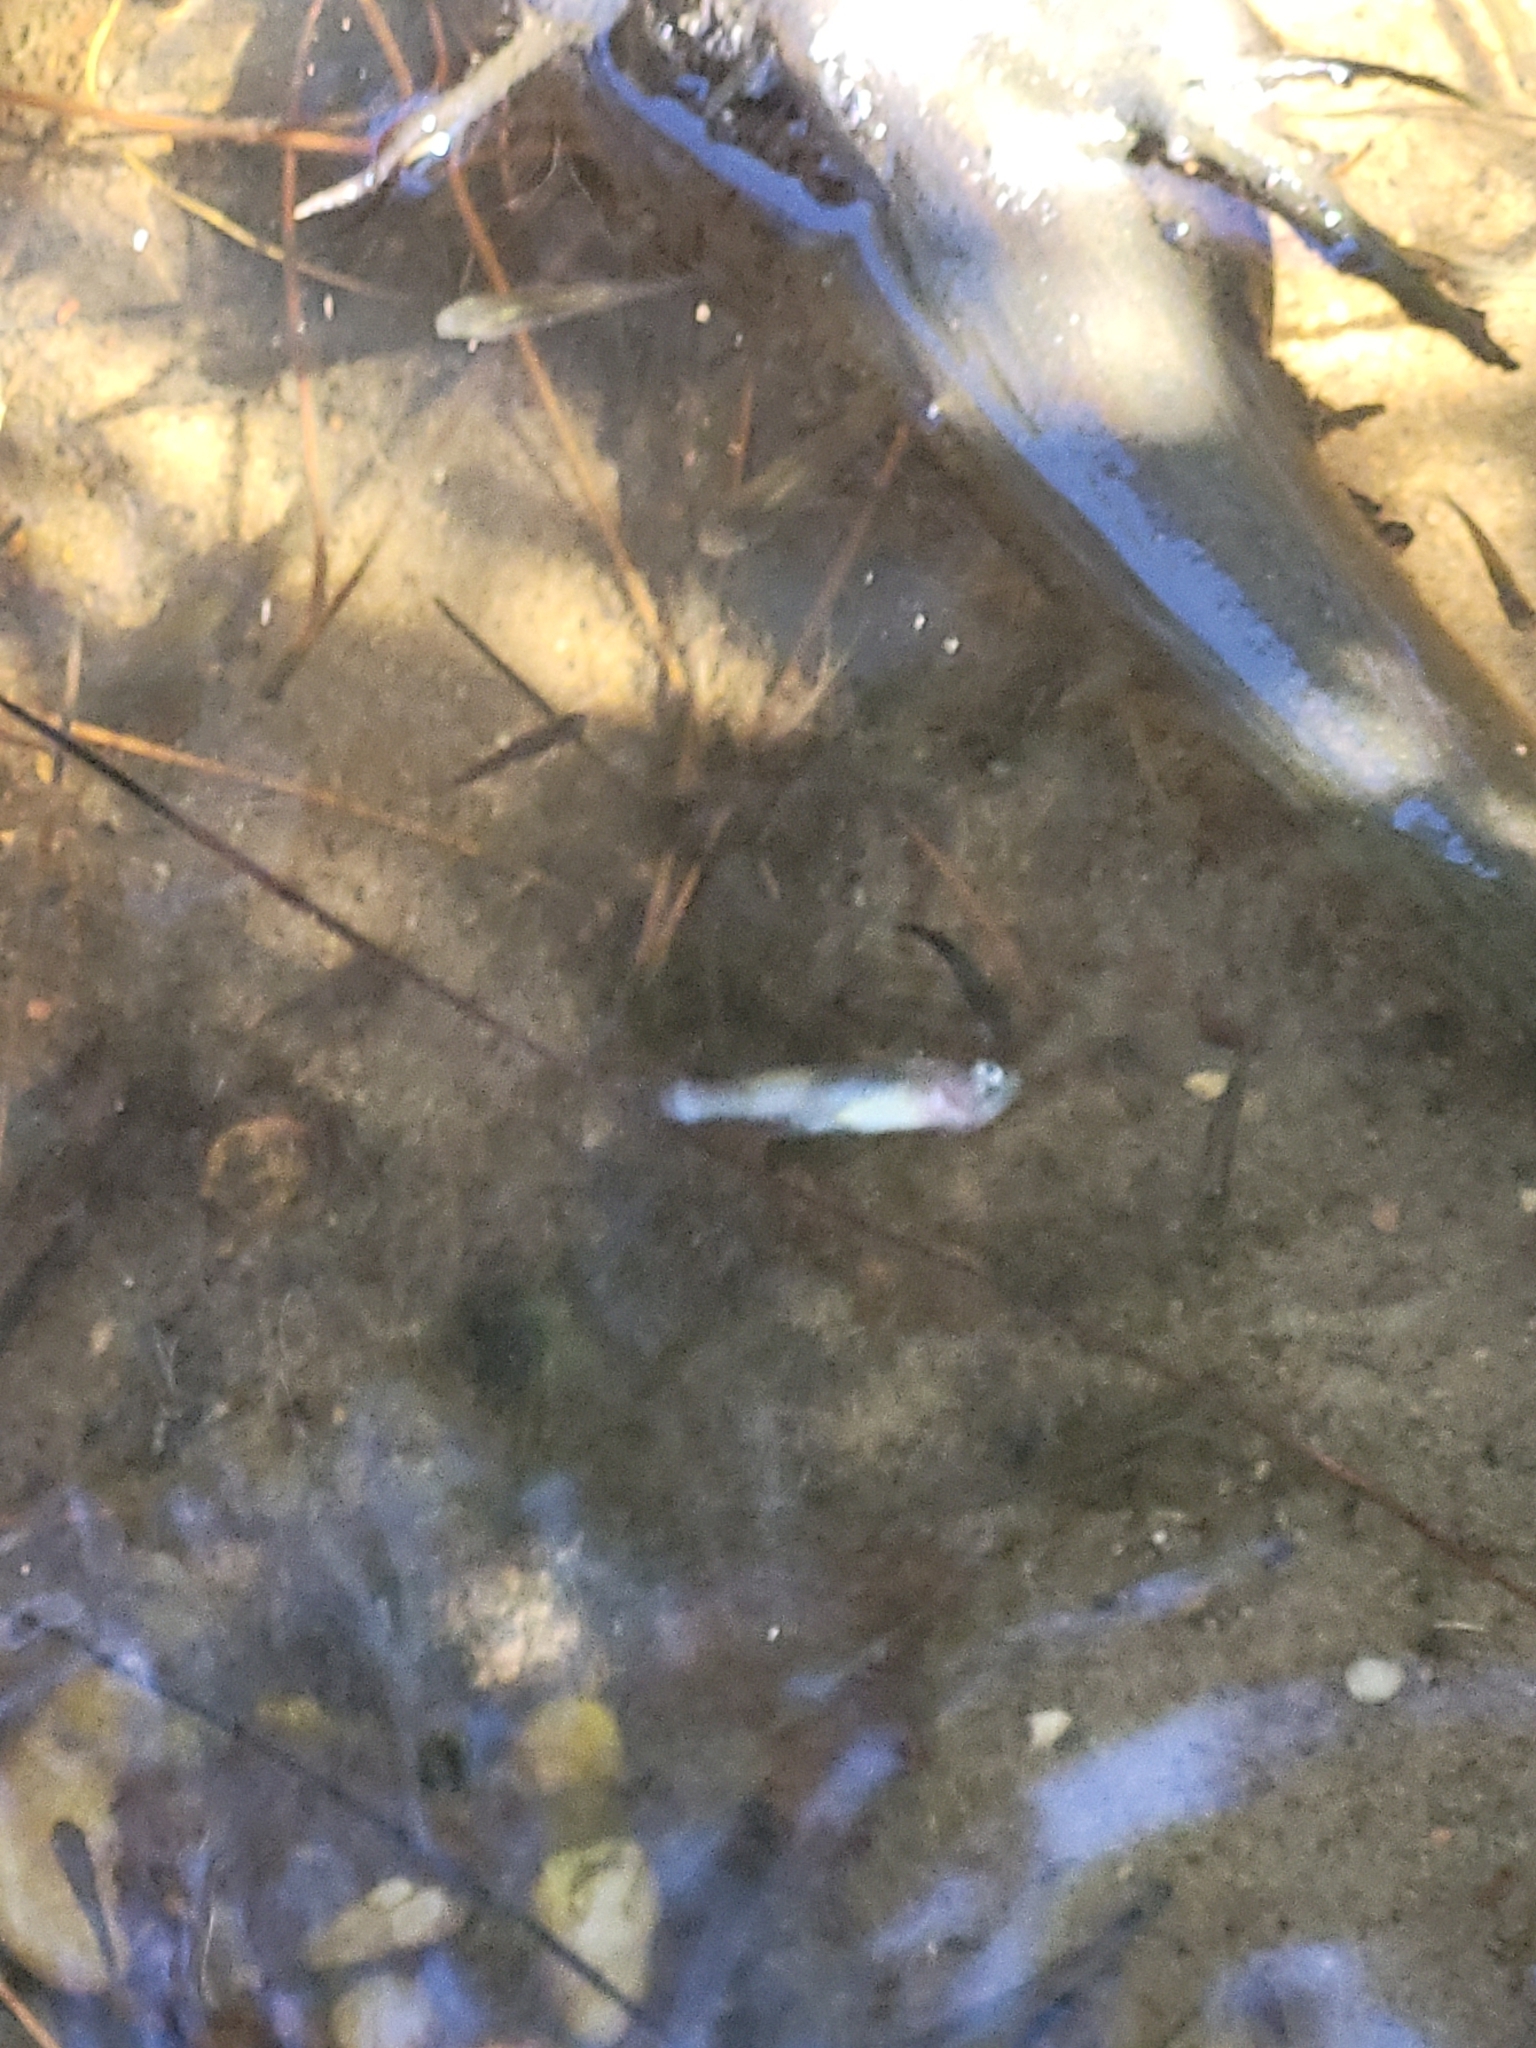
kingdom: Animalia
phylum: Chordata
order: Cyprinodontiformes
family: Poeciliidae
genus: Gambusia
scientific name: Gambusia holbrooki
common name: Eastern mosquitofish
